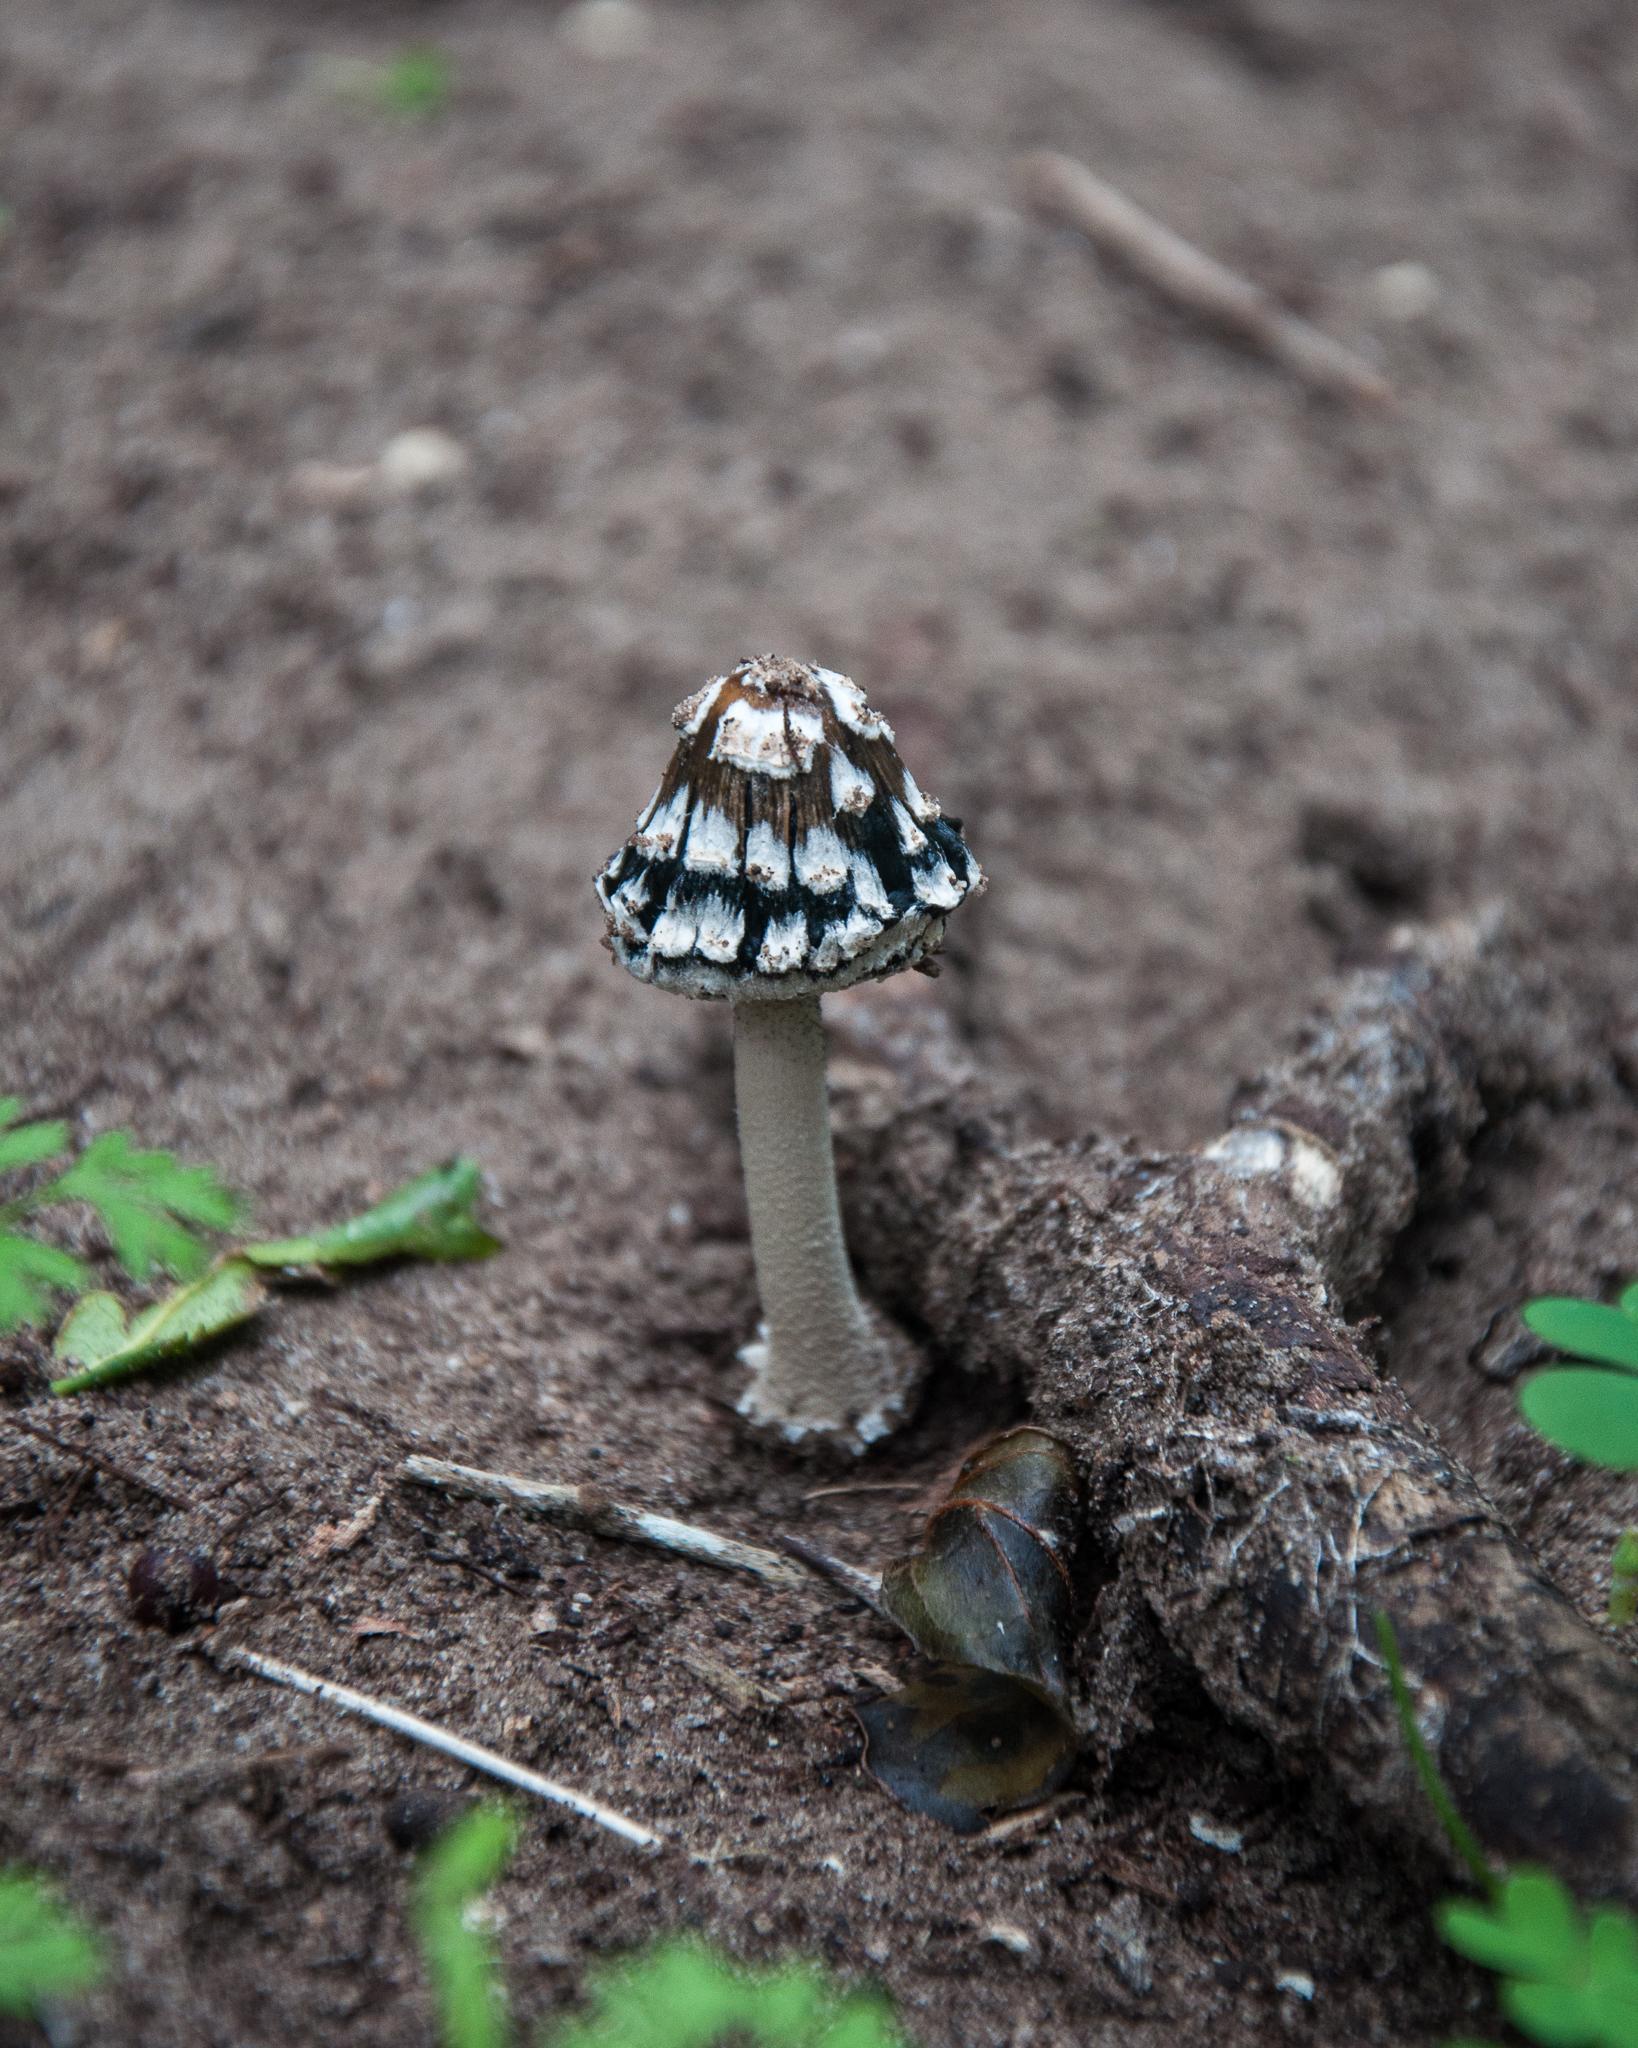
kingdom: Fungi
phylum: Basidiomycota
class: Agaricomycetes
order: Agaricales
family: Psathyrellaceae
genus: Coprinopsis
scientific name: Coprinopsis picacea
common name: Magpie inkcap
